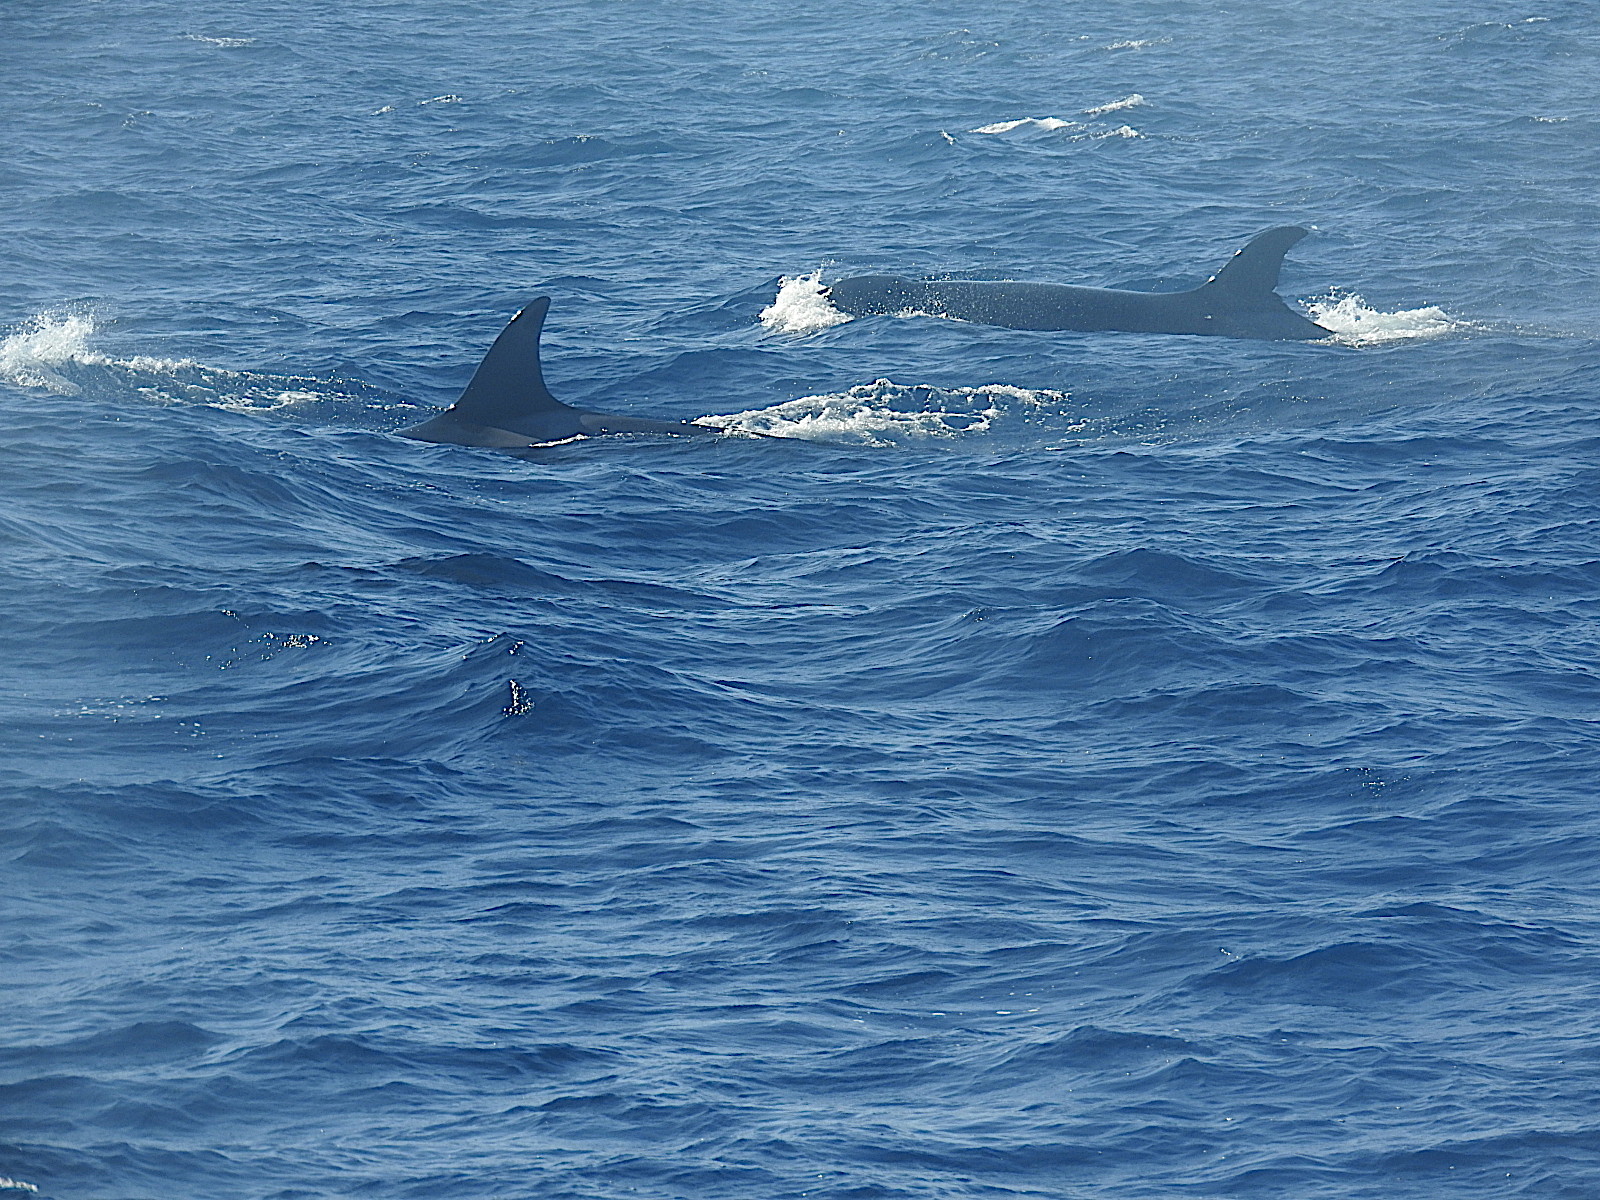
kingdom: Animalia
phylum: Chordata
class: Mammalia
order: Cetacea
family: Delphinidae
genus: Orcinus
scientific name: Orcinus orca
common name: Killer whale
